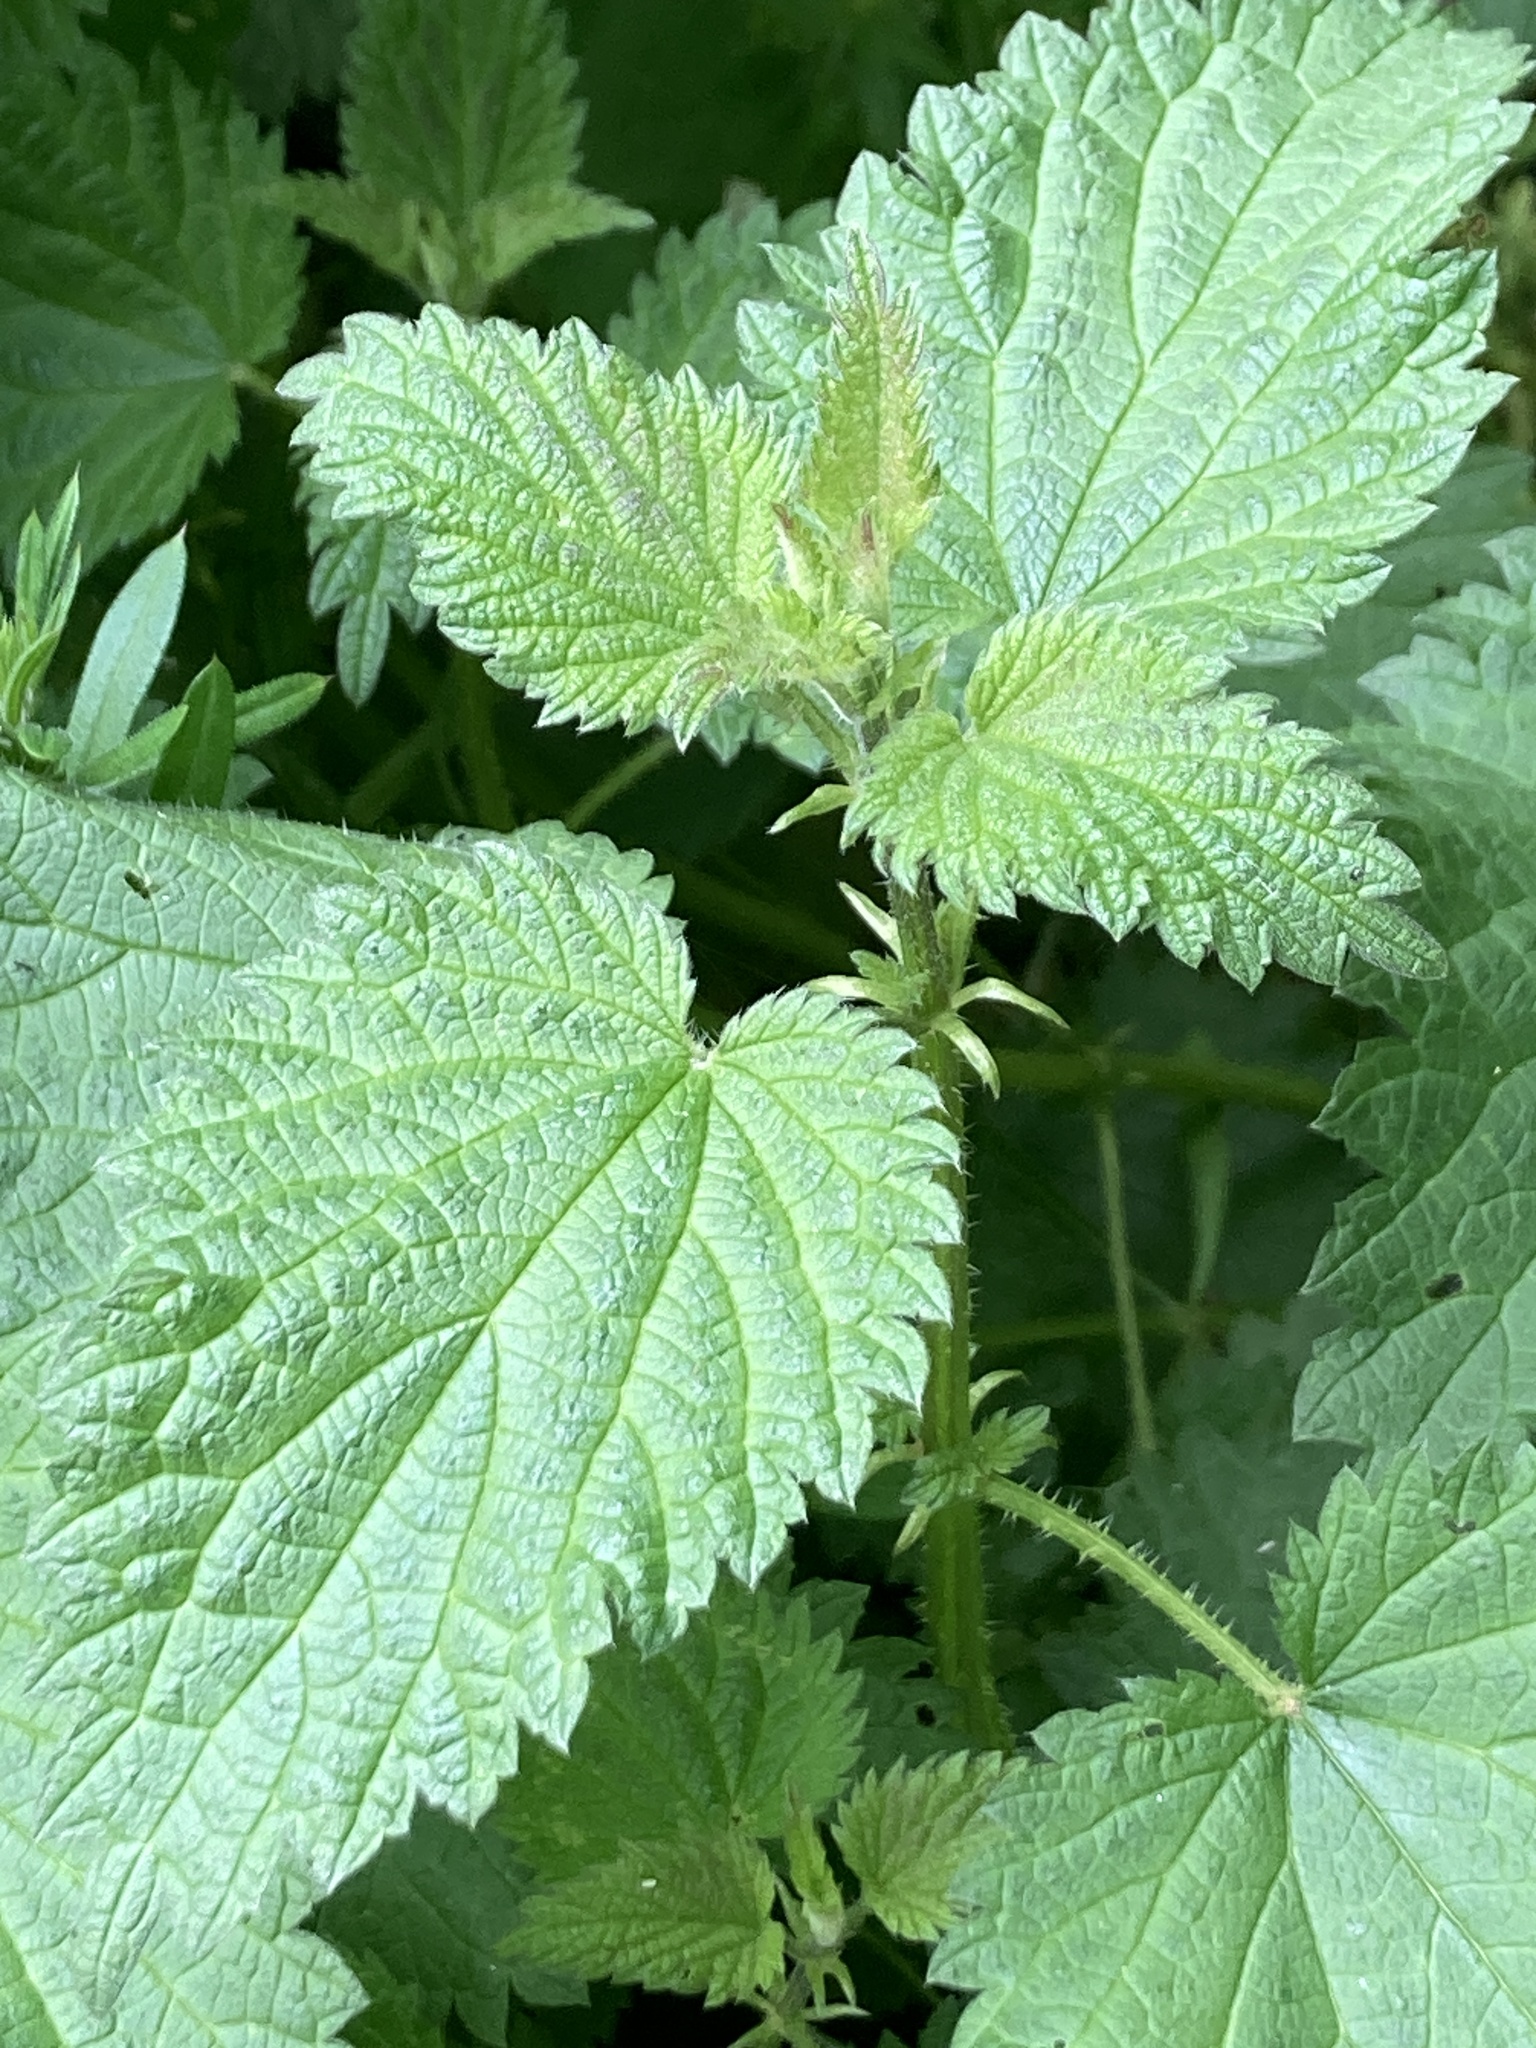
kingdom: Plantae
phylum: Tracheophyta
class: Magnoliopsida
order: Rosales
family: Urticaceae
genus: Urtica
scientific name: Urtica dioica
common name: Common nettle
